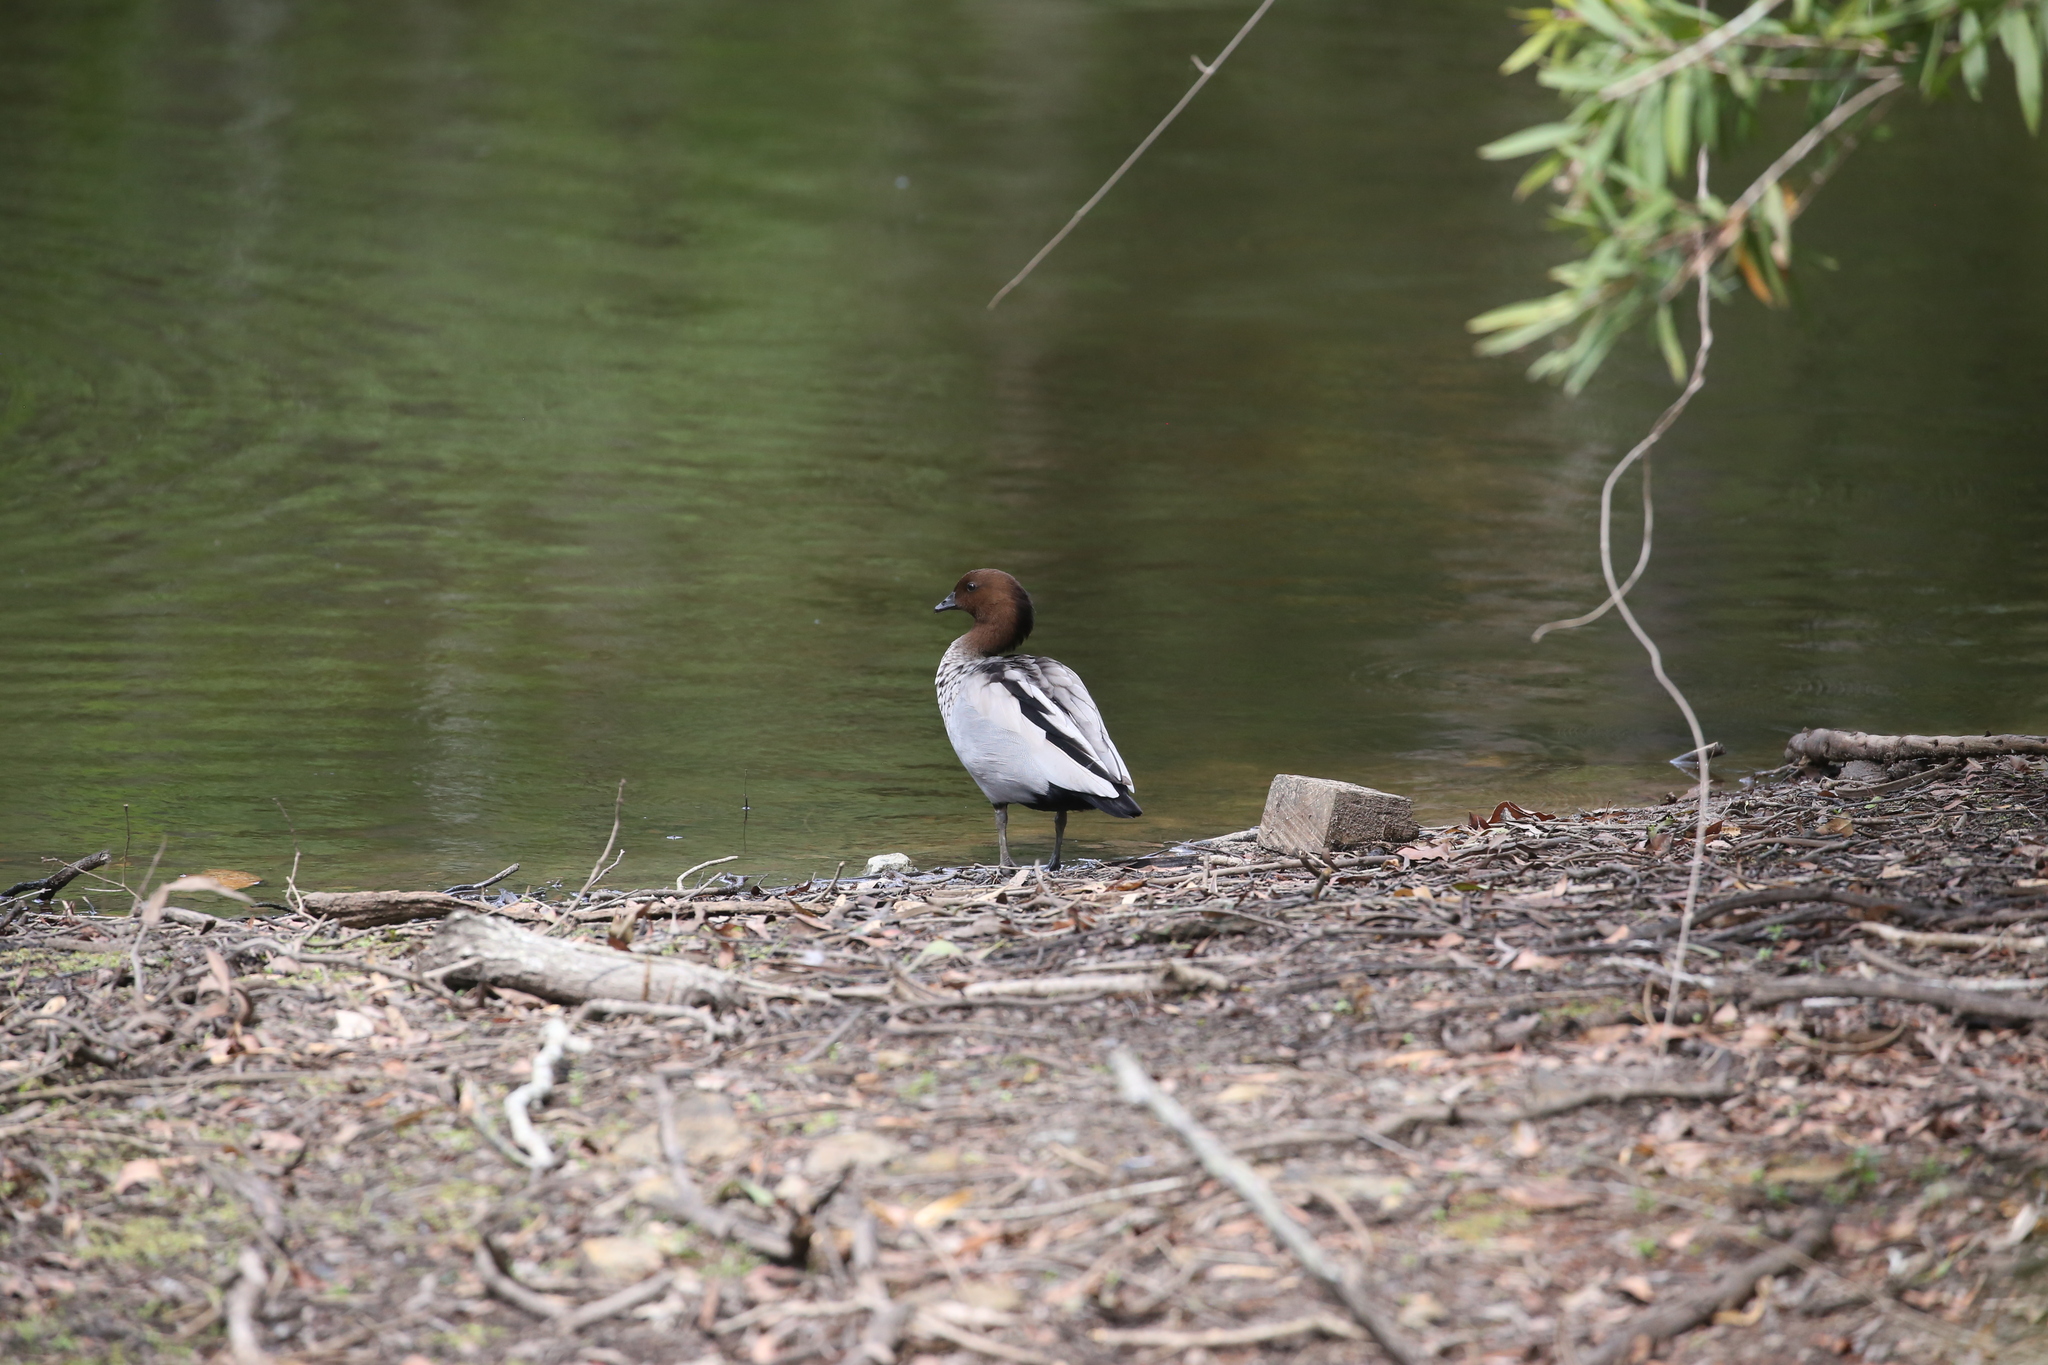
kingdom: Animalia
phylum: Chordata
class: Aves
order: Anseriformes
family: Anatidae
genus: Chenonetta
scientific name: Chenonetta jubata
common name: Maned duck
